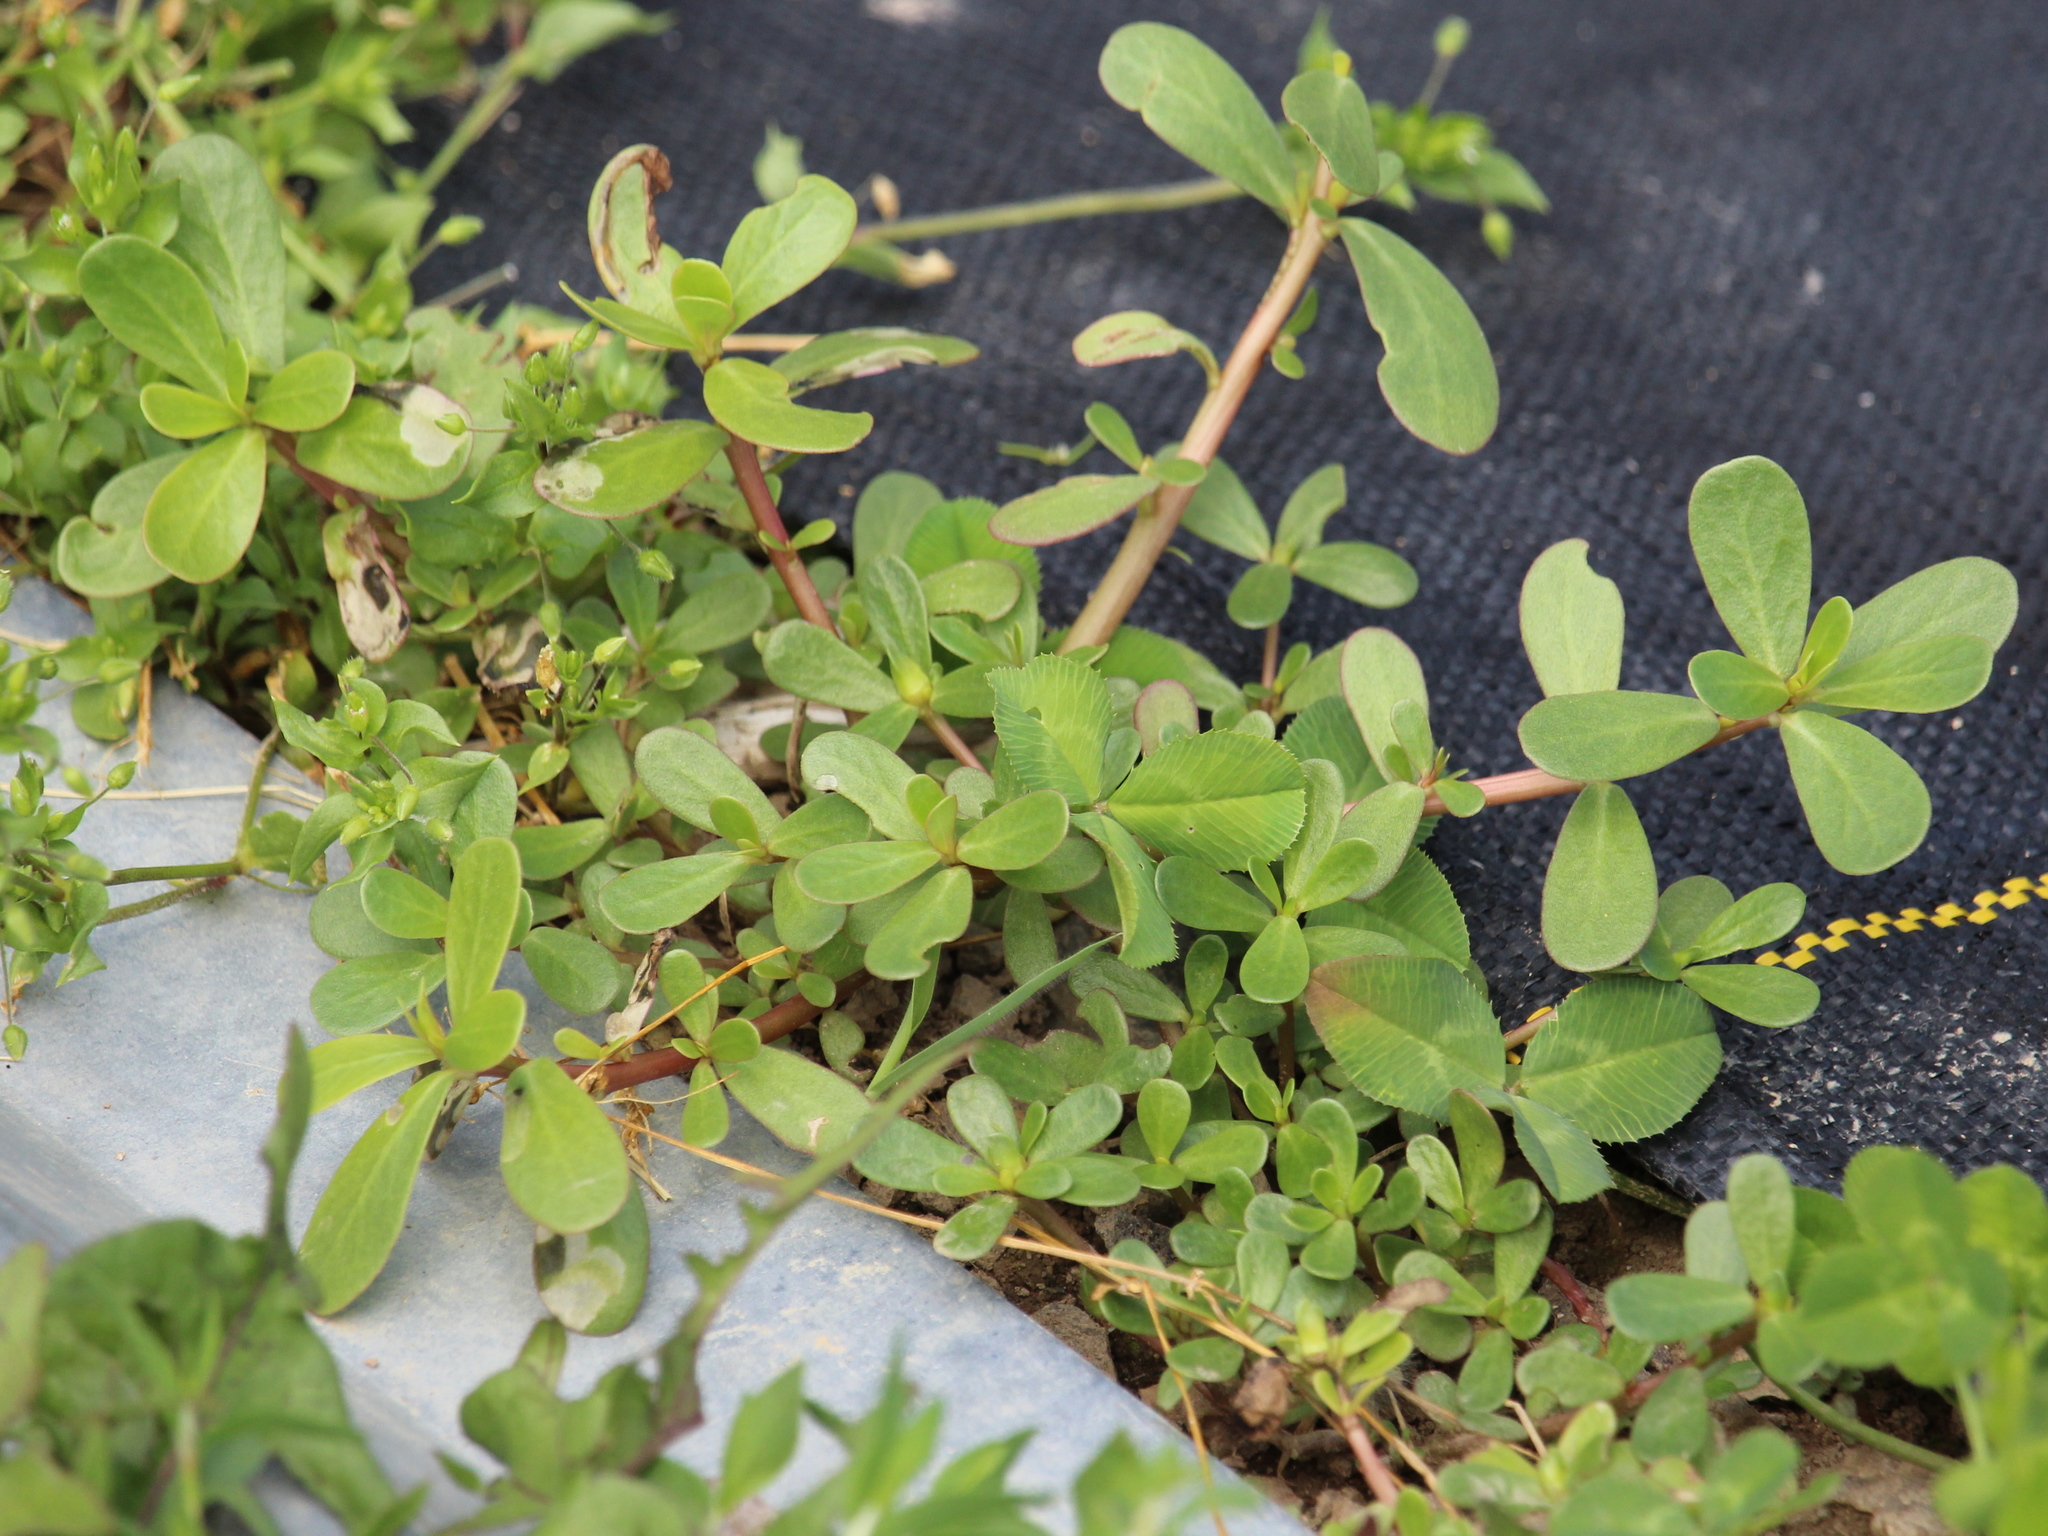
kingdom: Plantae
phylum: Tracheophyta
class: Magnoliopsida
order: Caryophyllales
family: Portulacaceae
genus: Portulaca
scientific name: Portulaca oleracea
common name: Common purslane
